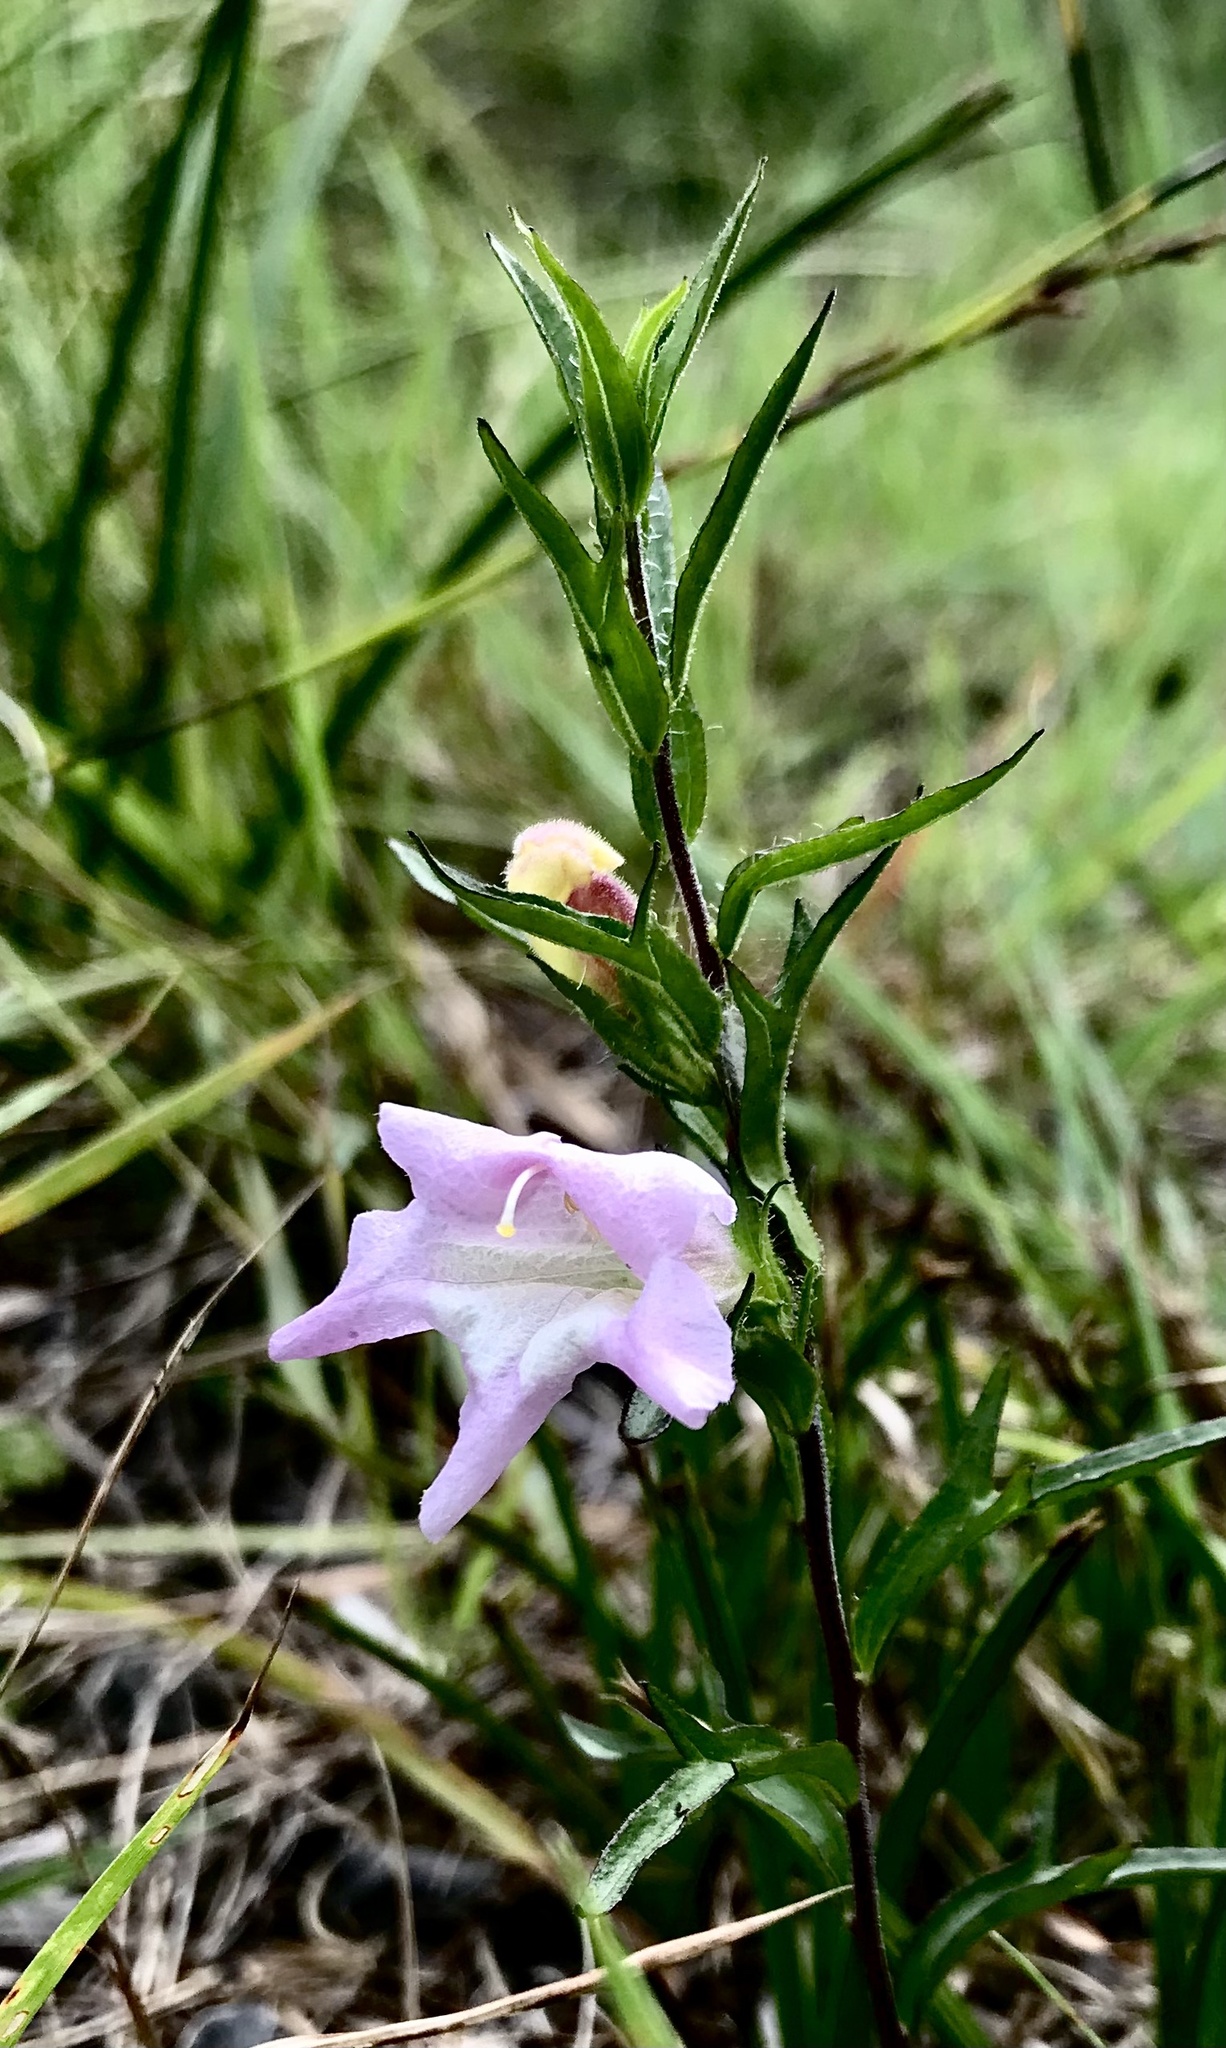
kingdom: Plantae
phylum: Tracheophyta
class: Magnoliopsida
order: Lamiales
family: Orobanchaceae
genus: Graderia
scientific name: Graderia scabra
